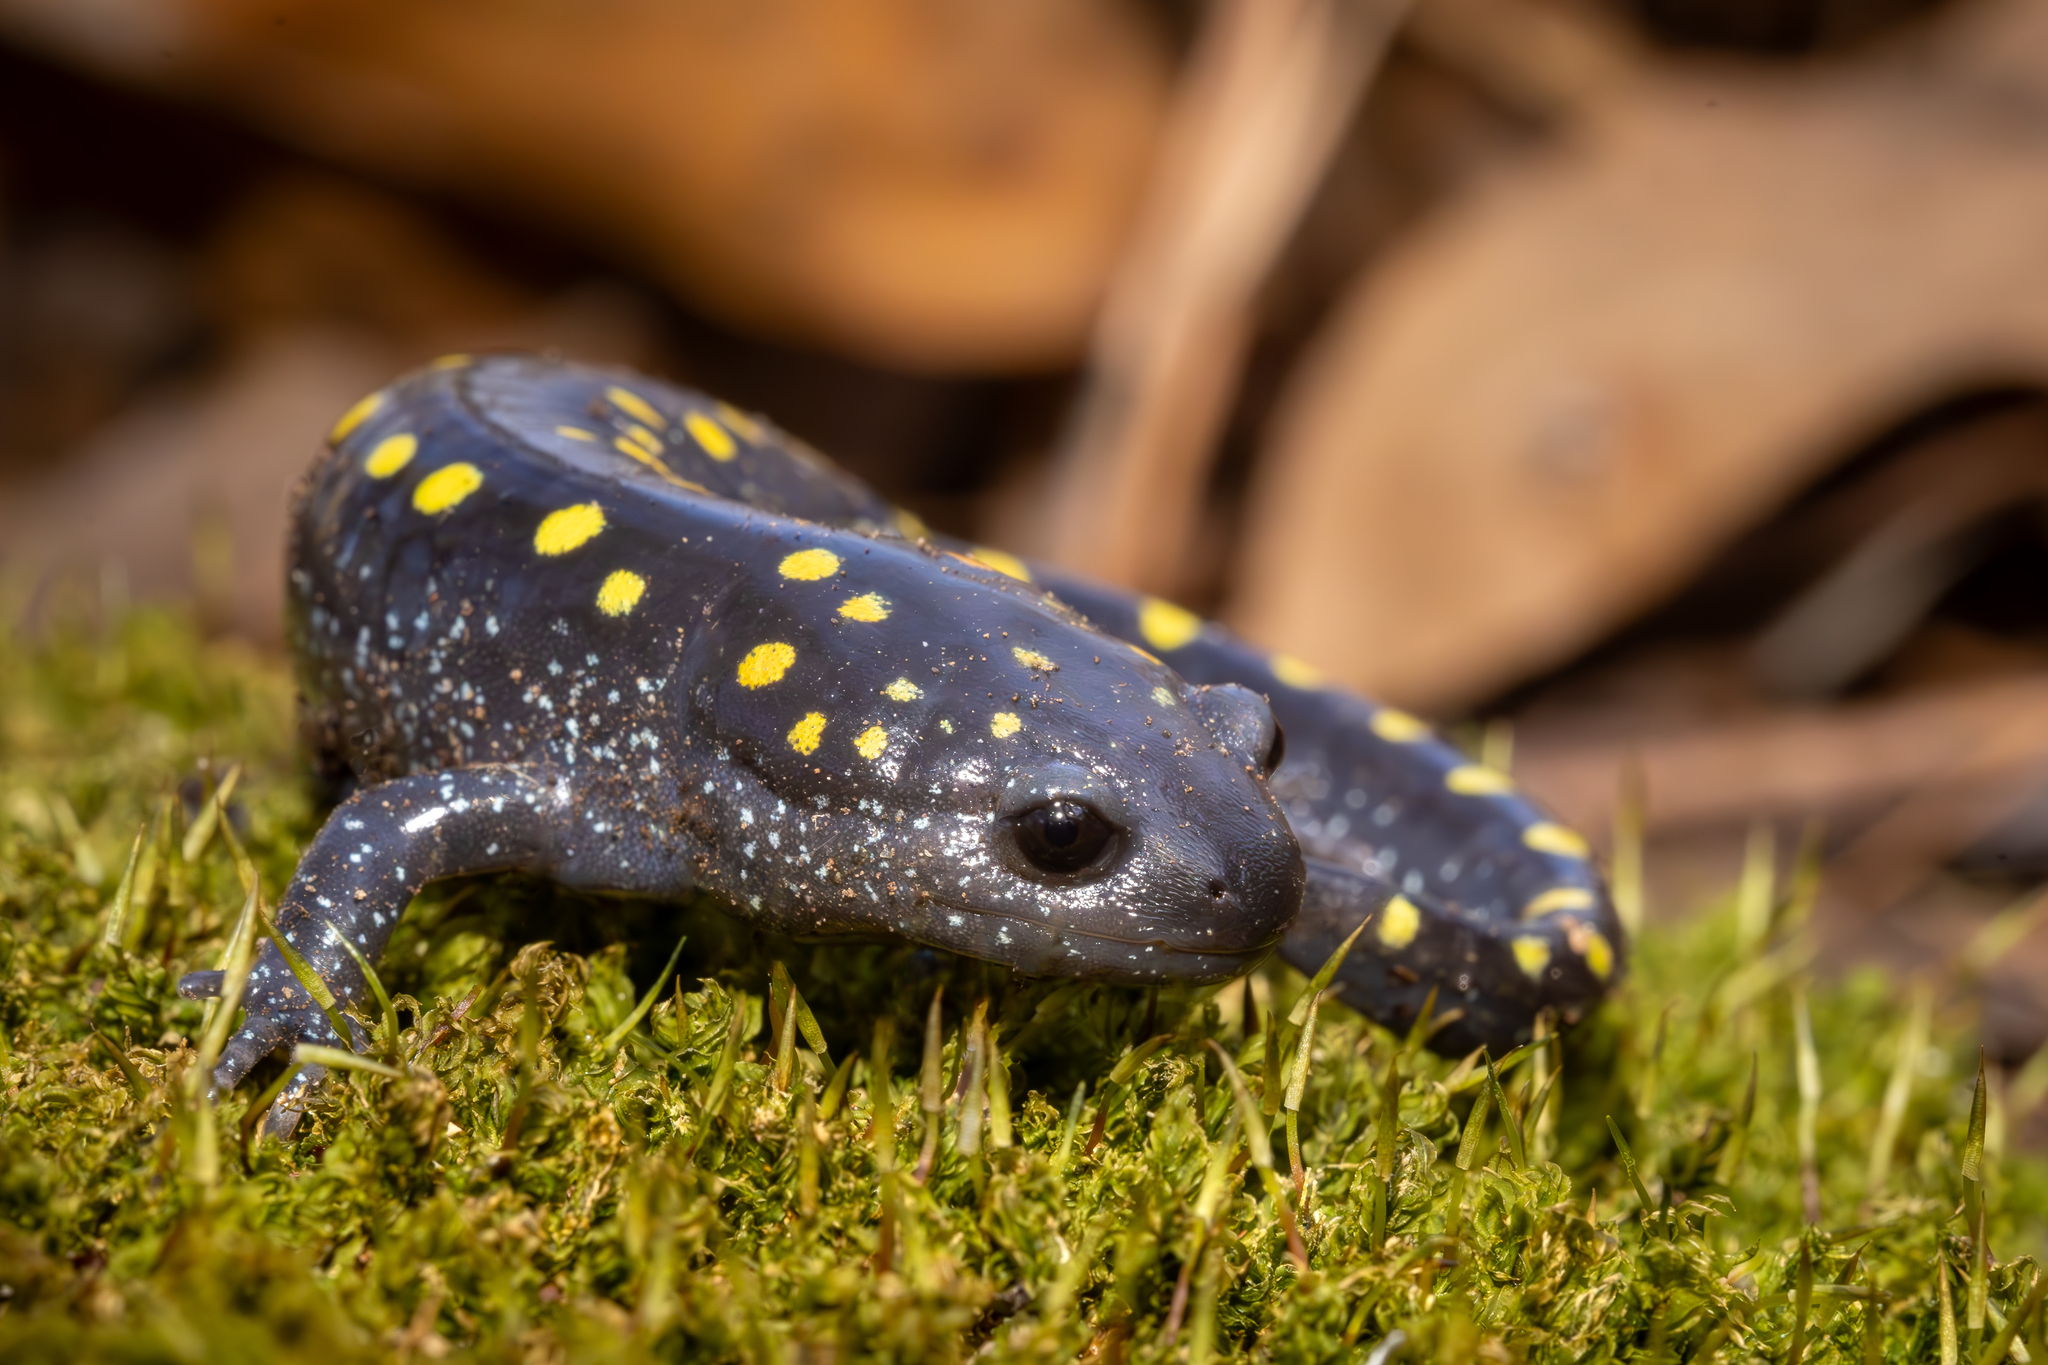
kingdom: Animalia
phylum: Chordata
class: Amphibia
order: Caudata
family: Ambystomatidae
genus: Ambystoma
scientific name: Ambystoma maculatum
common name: Spotted salamander
